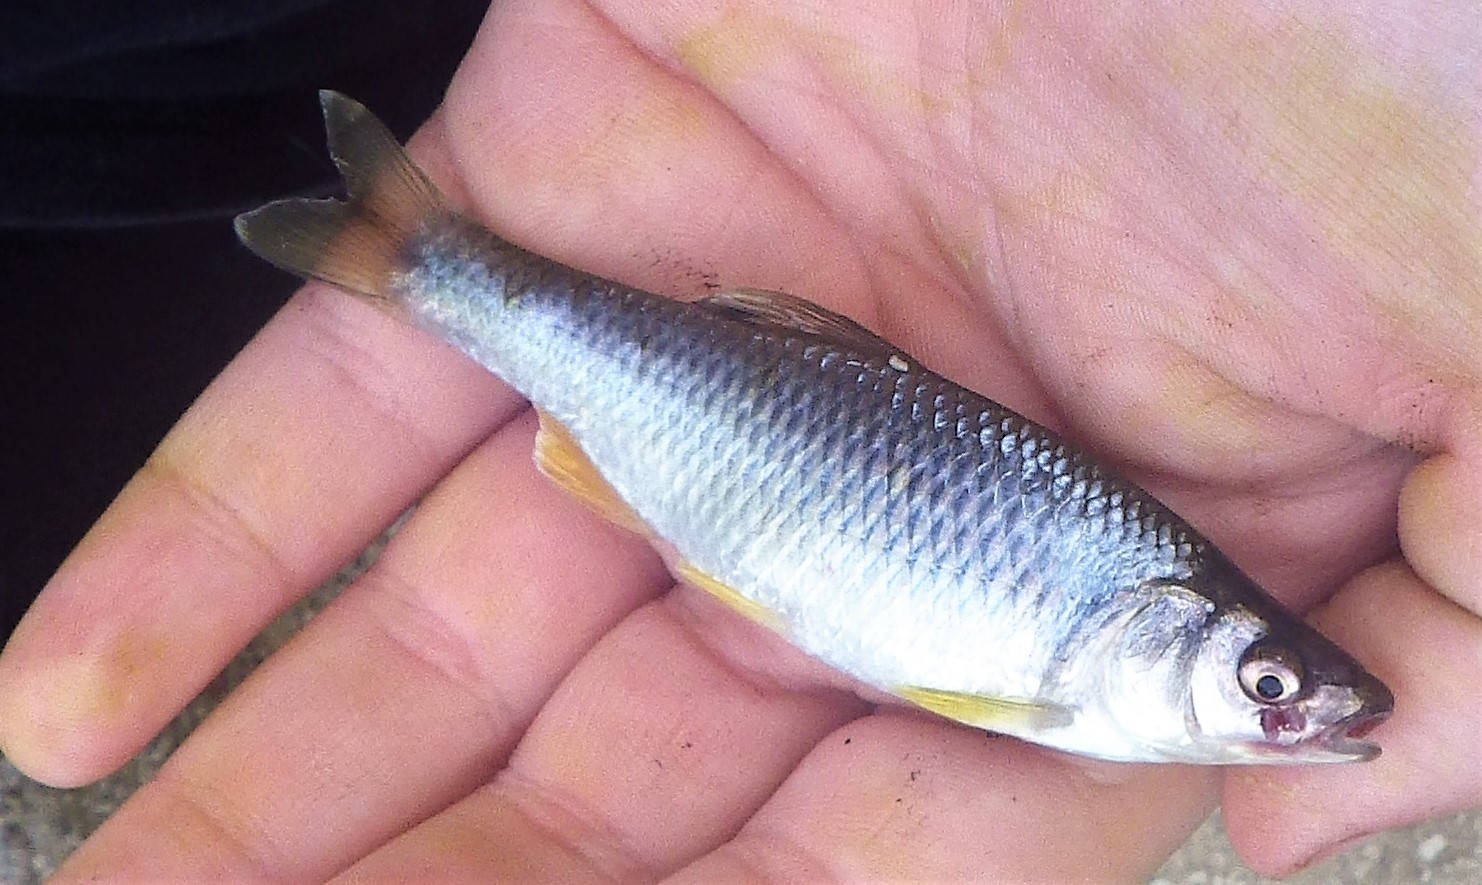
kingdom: Animalia
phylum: Chordata
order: Cypriniformes
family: Cyprinidae
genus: Cyprinella
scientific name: Cyprinella spiloptera
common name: Spotfin shiner
